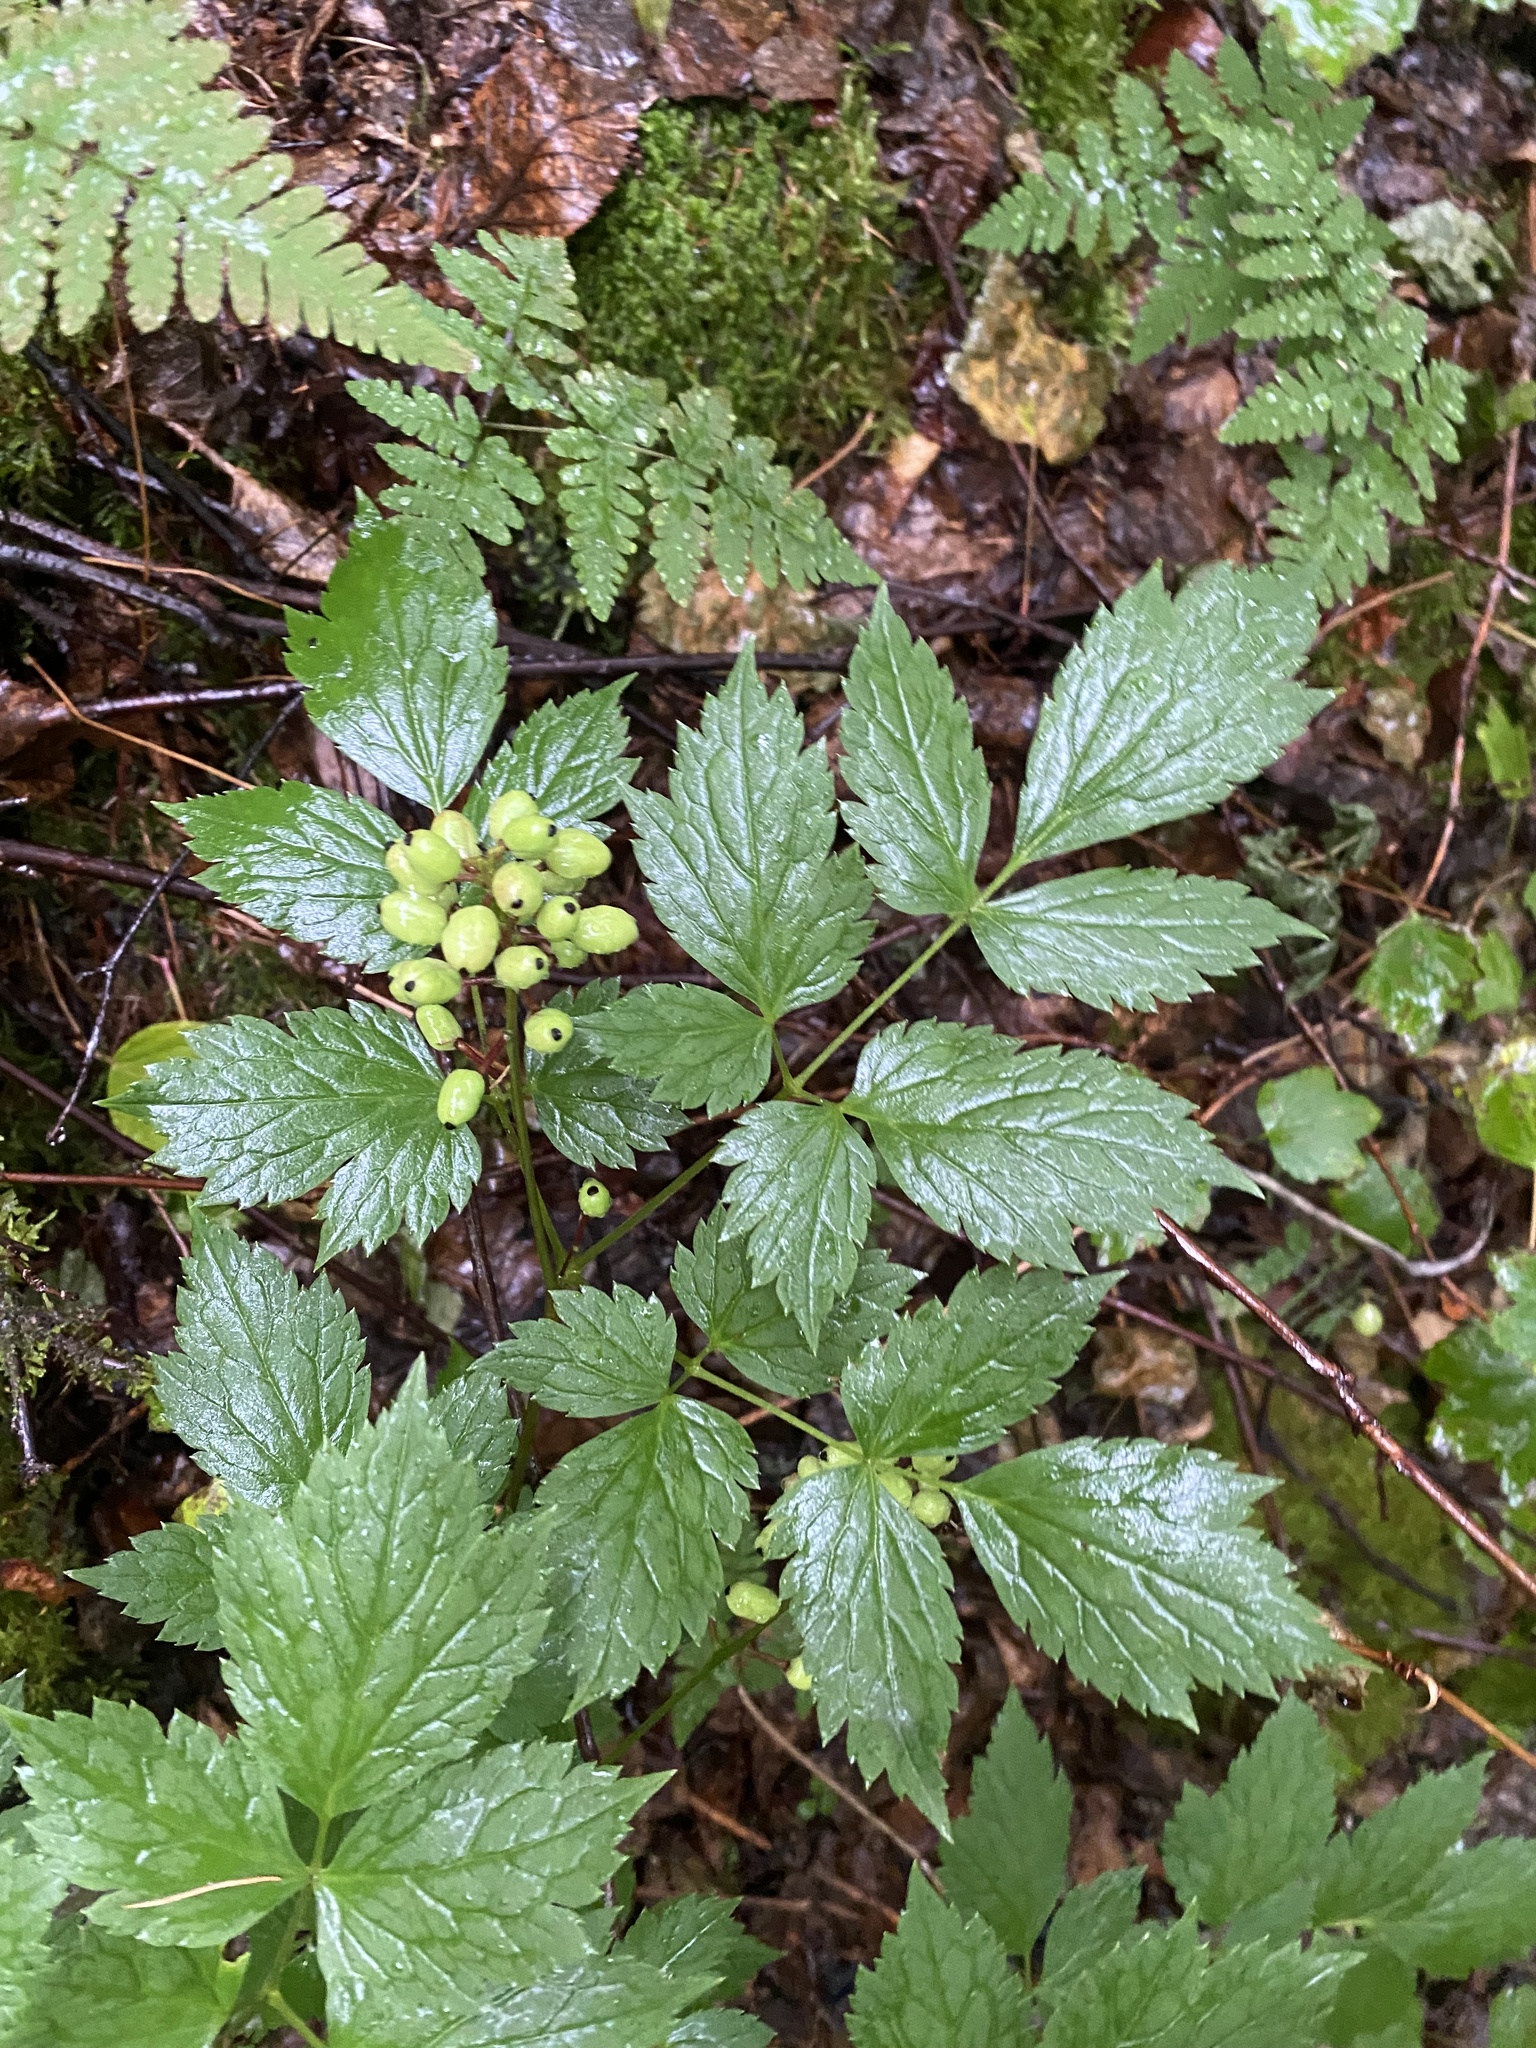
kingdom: Plantae
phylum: Tracheophyta
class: Magnoliopsida
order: Ranunculales
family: Ranunculaceae
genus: Actaea
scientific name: Actaea erythrocarpa
